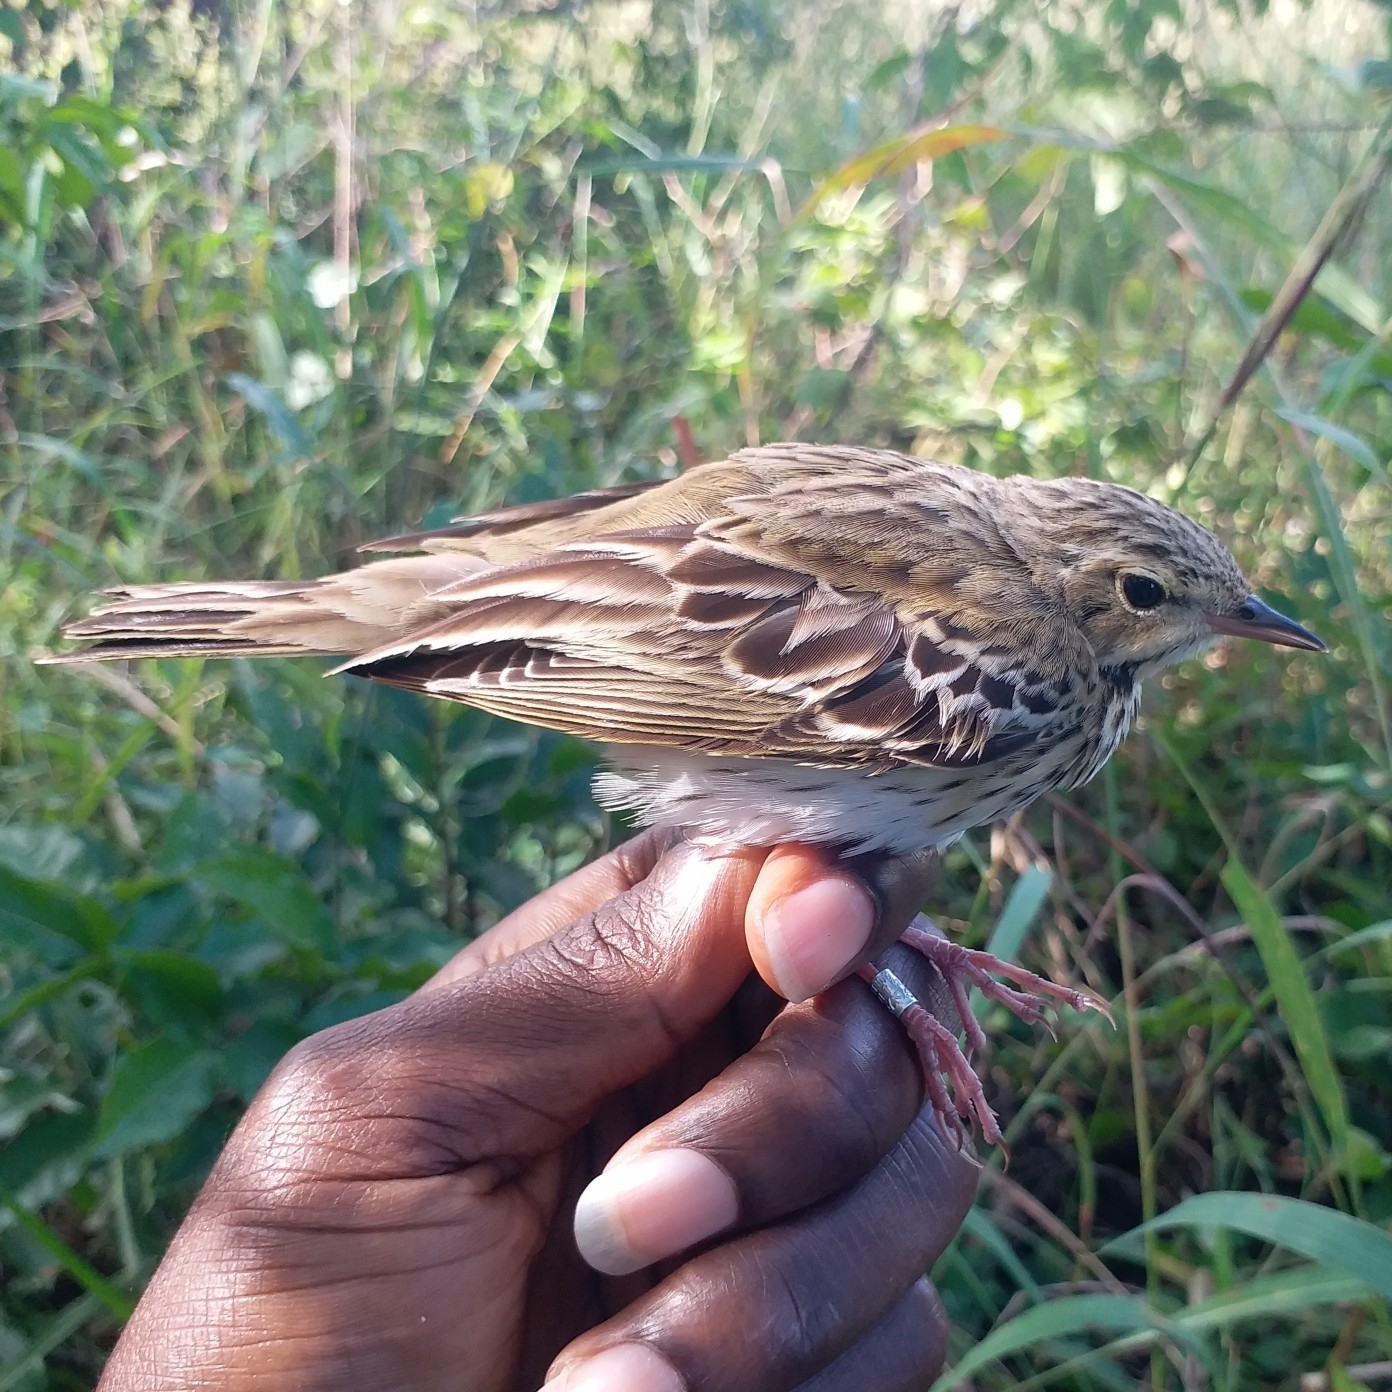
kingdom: Animalia
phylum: Chordata
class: Aves
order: Passeriformes
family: Motacillidae
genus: Anthus
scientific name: Anthus trivialis
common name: Tree pipit
